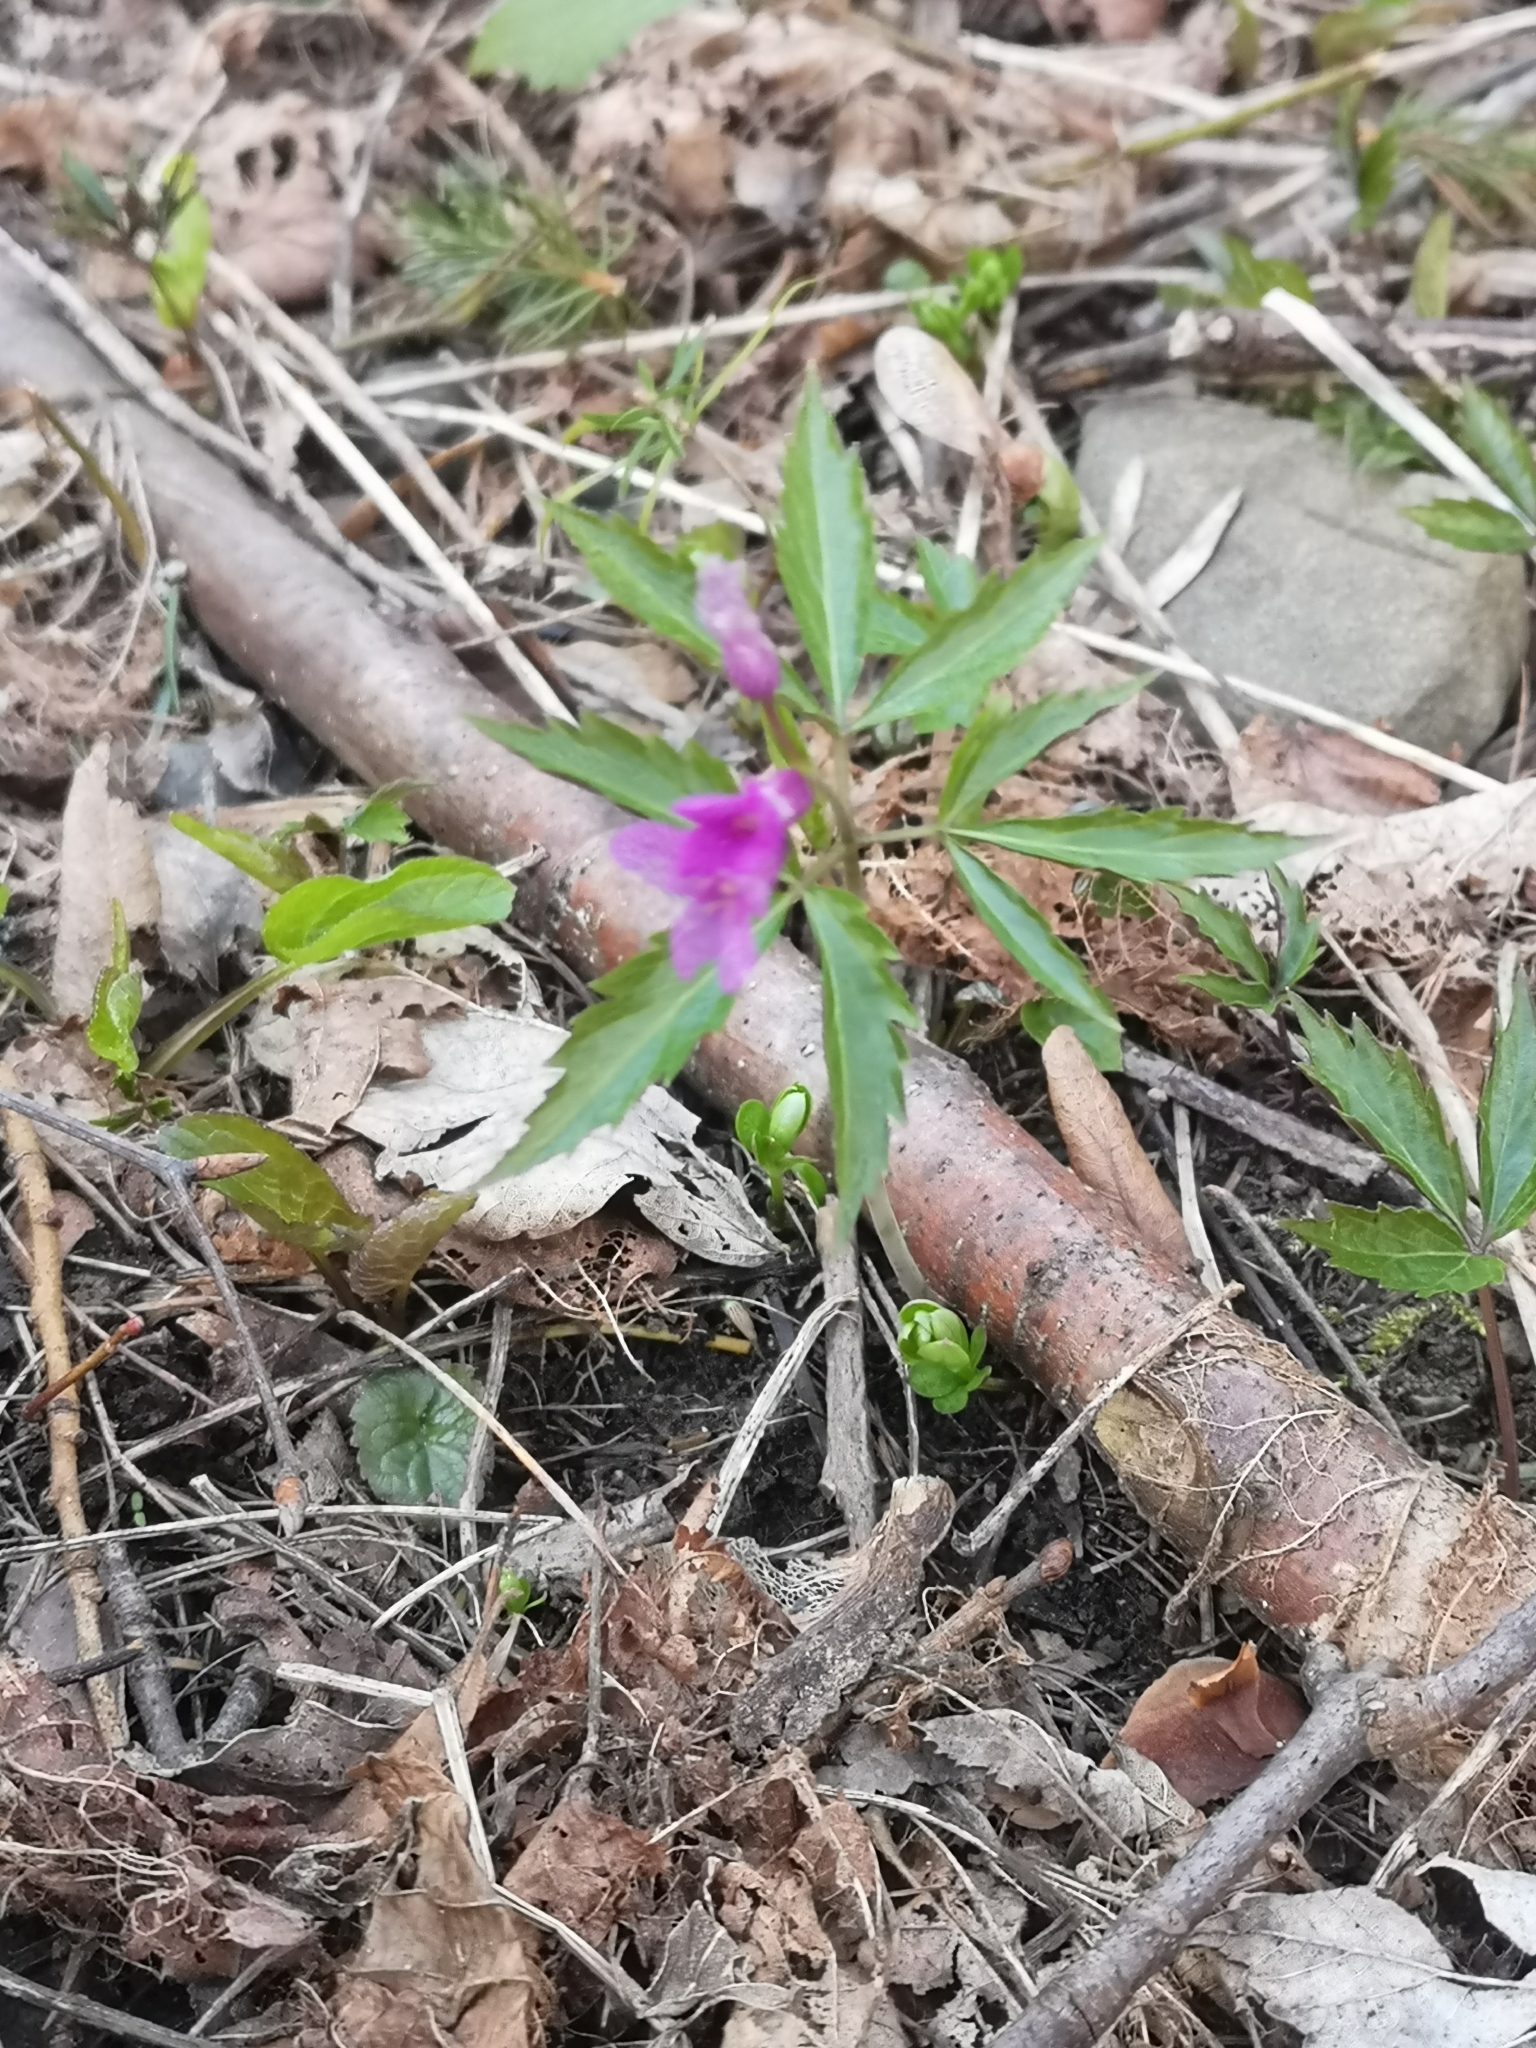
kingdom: Plantae
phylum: Tracheophyta
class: Magnoliopsida
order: Brassicales
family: Brassicaceae
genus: Cardamine
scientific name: Cardamine glanduligera
